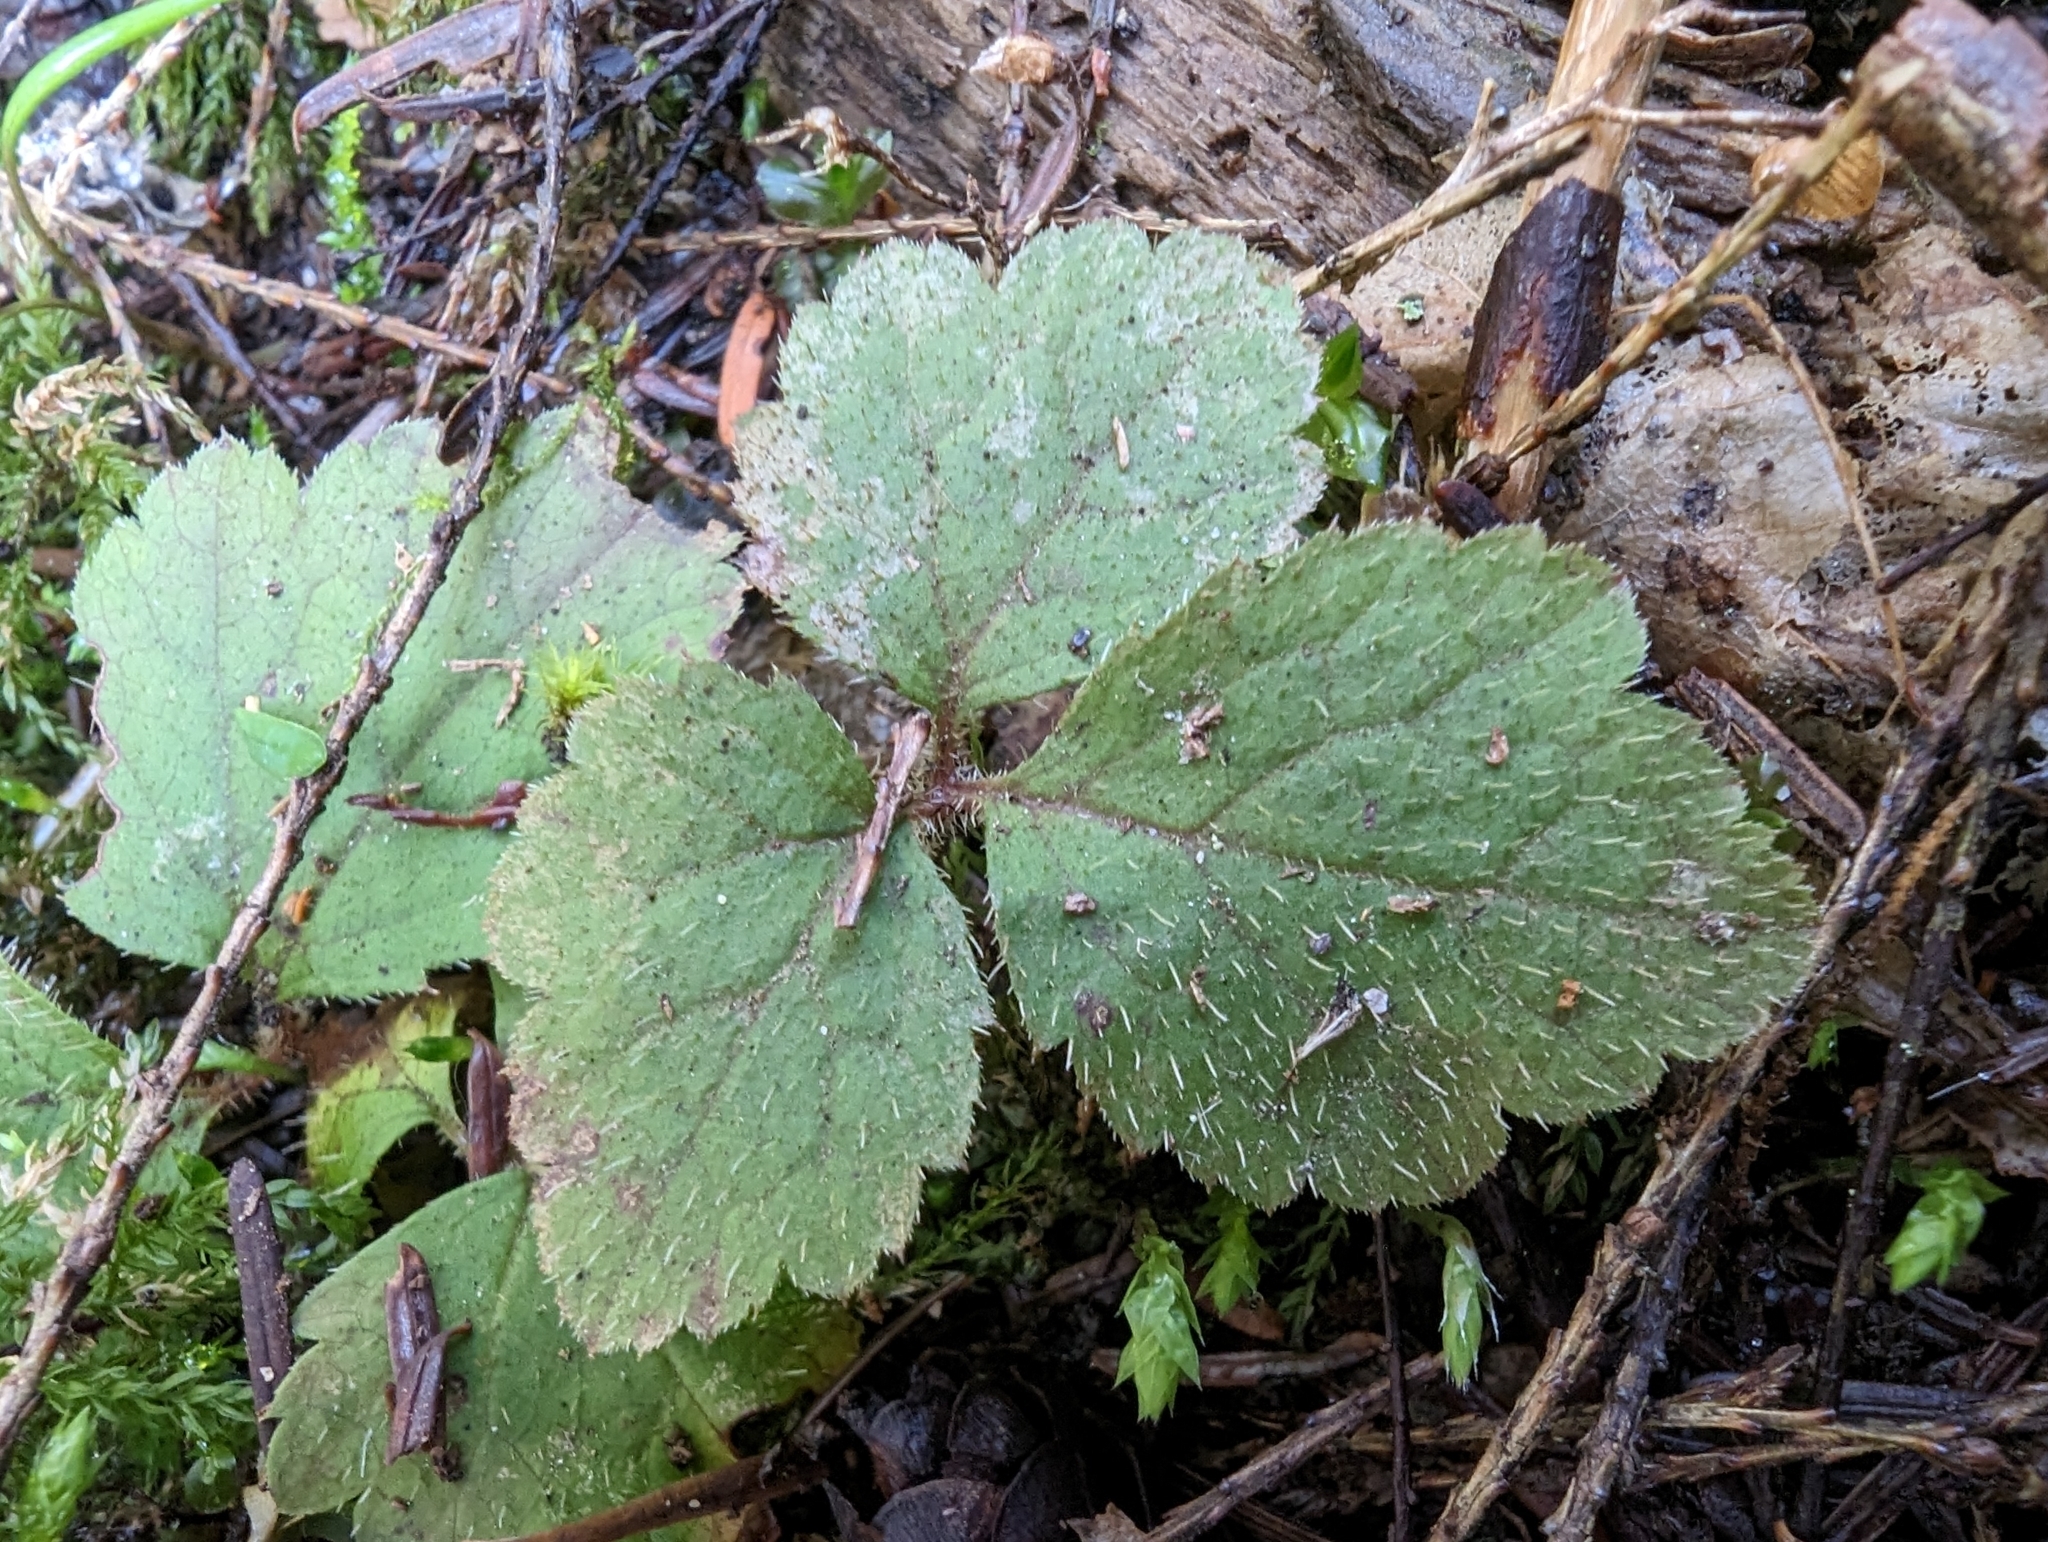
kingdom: Plantae
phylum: Tracheophyta
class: Magnoliopsida
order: Saxifragales
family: Saxifragaceae
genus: Tiarella
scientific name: Tiarella trifoliata
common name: Sugar-scoop
